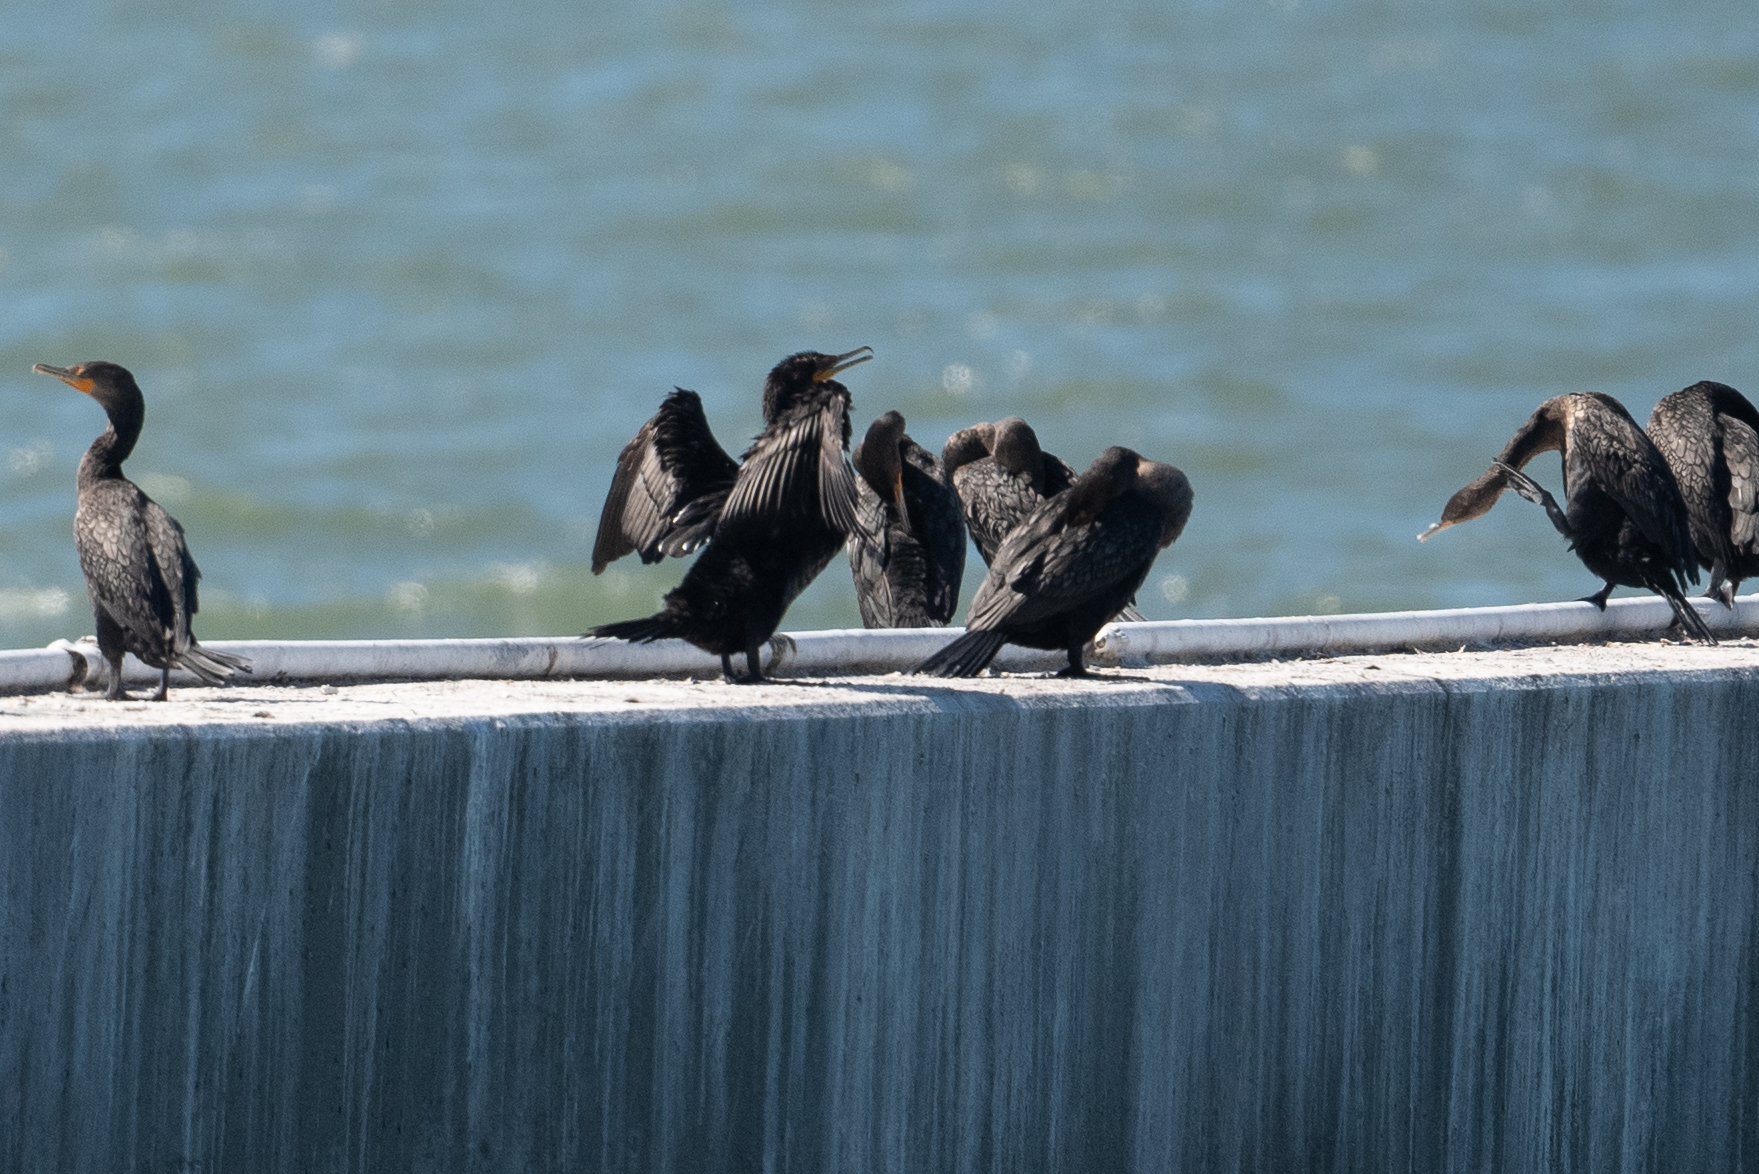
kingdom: Animalia
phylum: Chordata
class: Aves
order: Suliformes
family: Phalacrocoracidae
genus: Phalacrocorax
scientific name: Phalacrocorax auritus
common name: Double-crested cormorant
